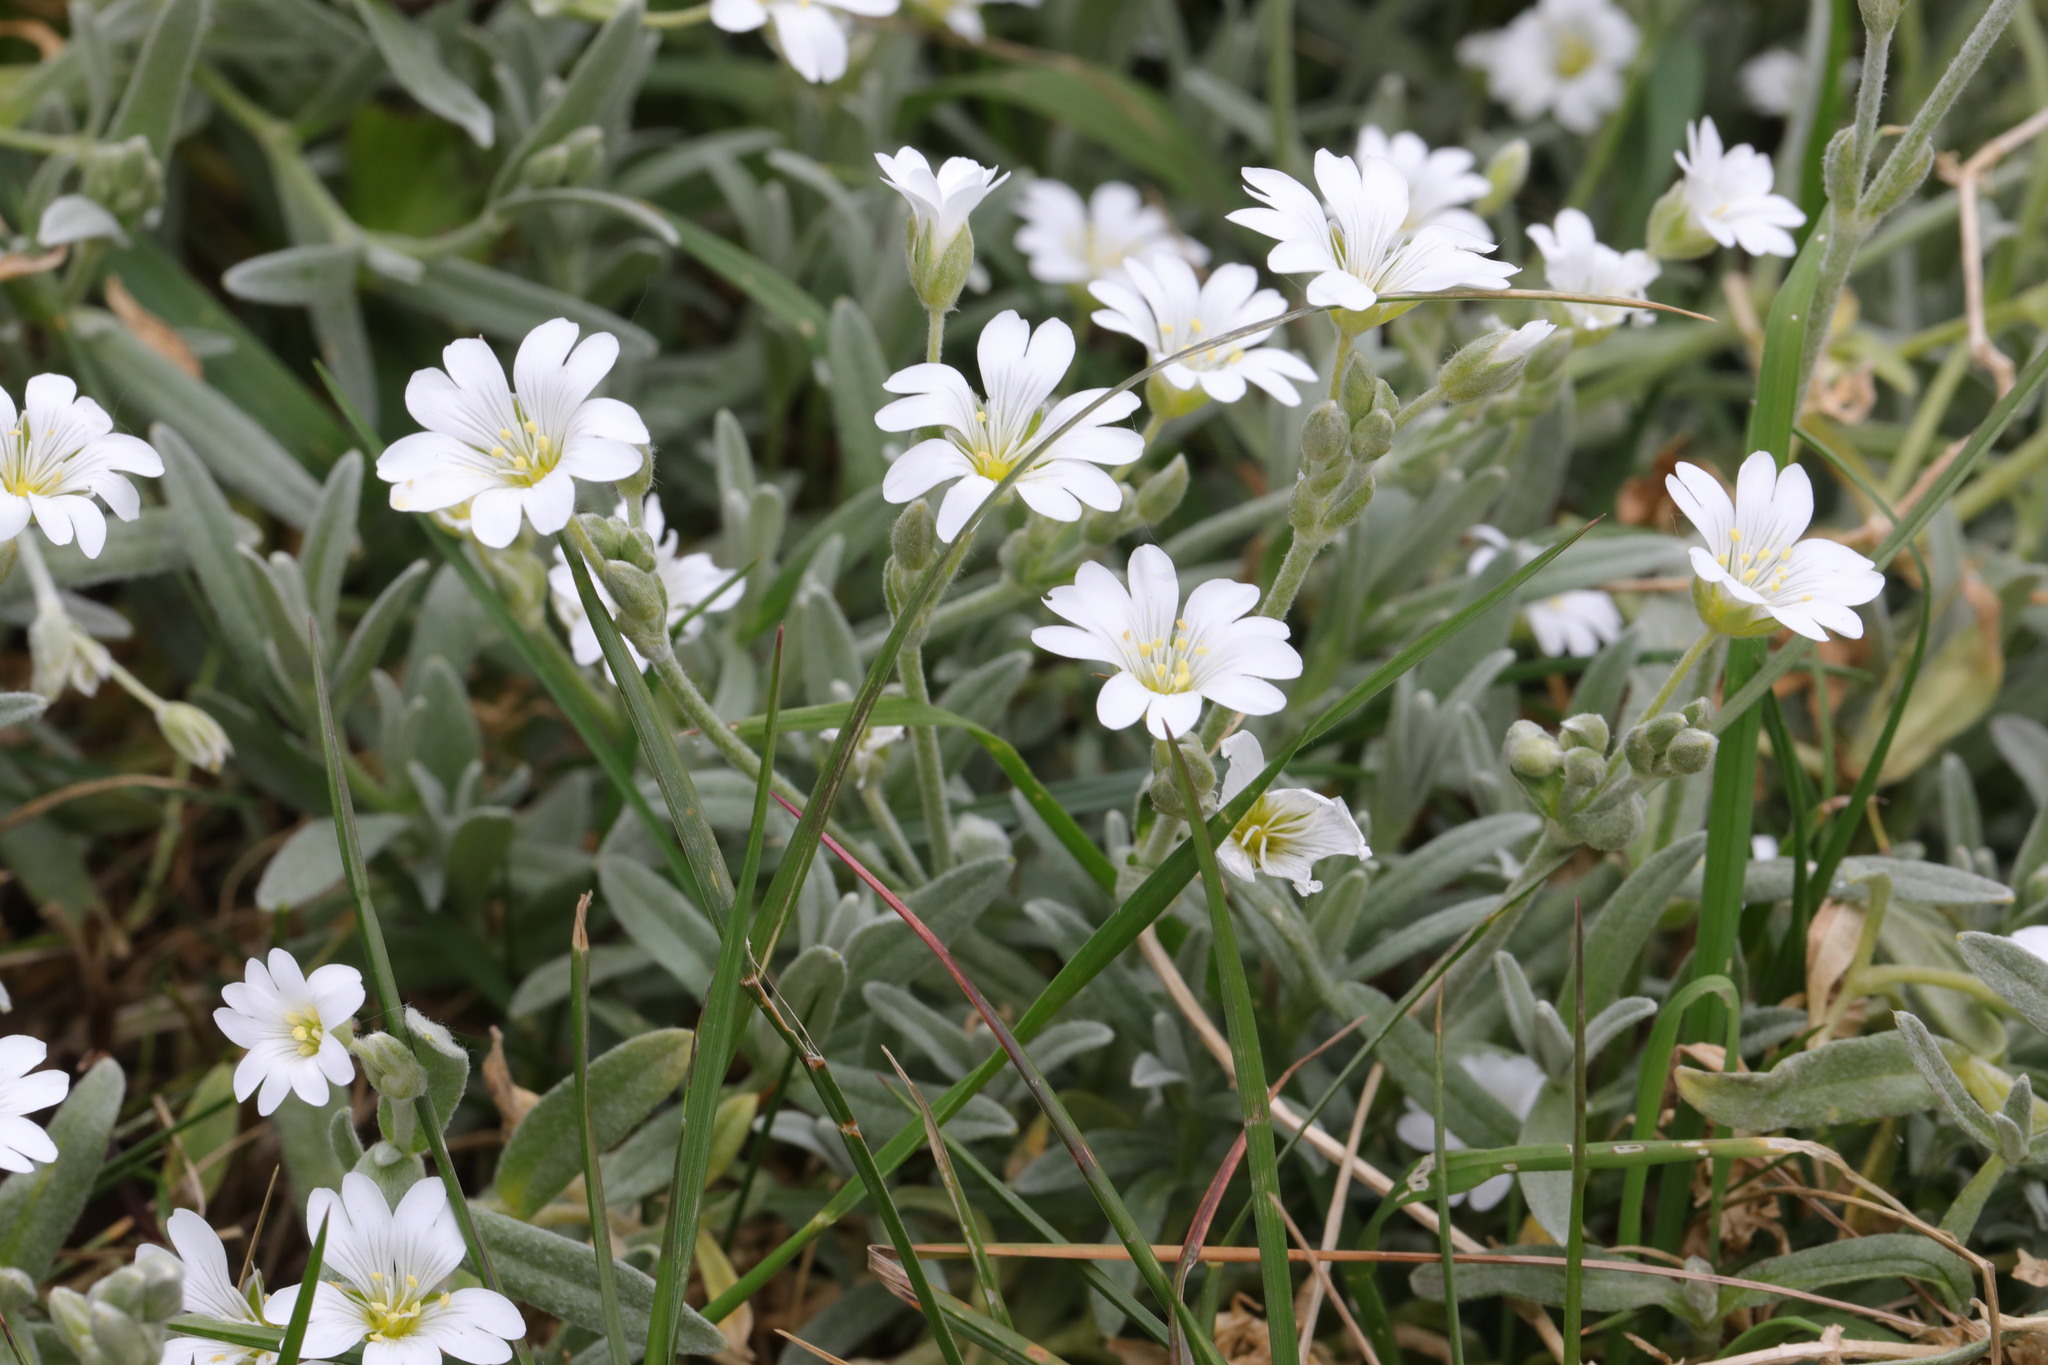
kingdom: Plantae
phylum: Tracheophyta
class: Magnoliopsida
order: Caryophyllales
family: Caryophyllaceae
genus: Cerastium
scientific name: Cerastium tomentosum
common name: Snow-in-summer
